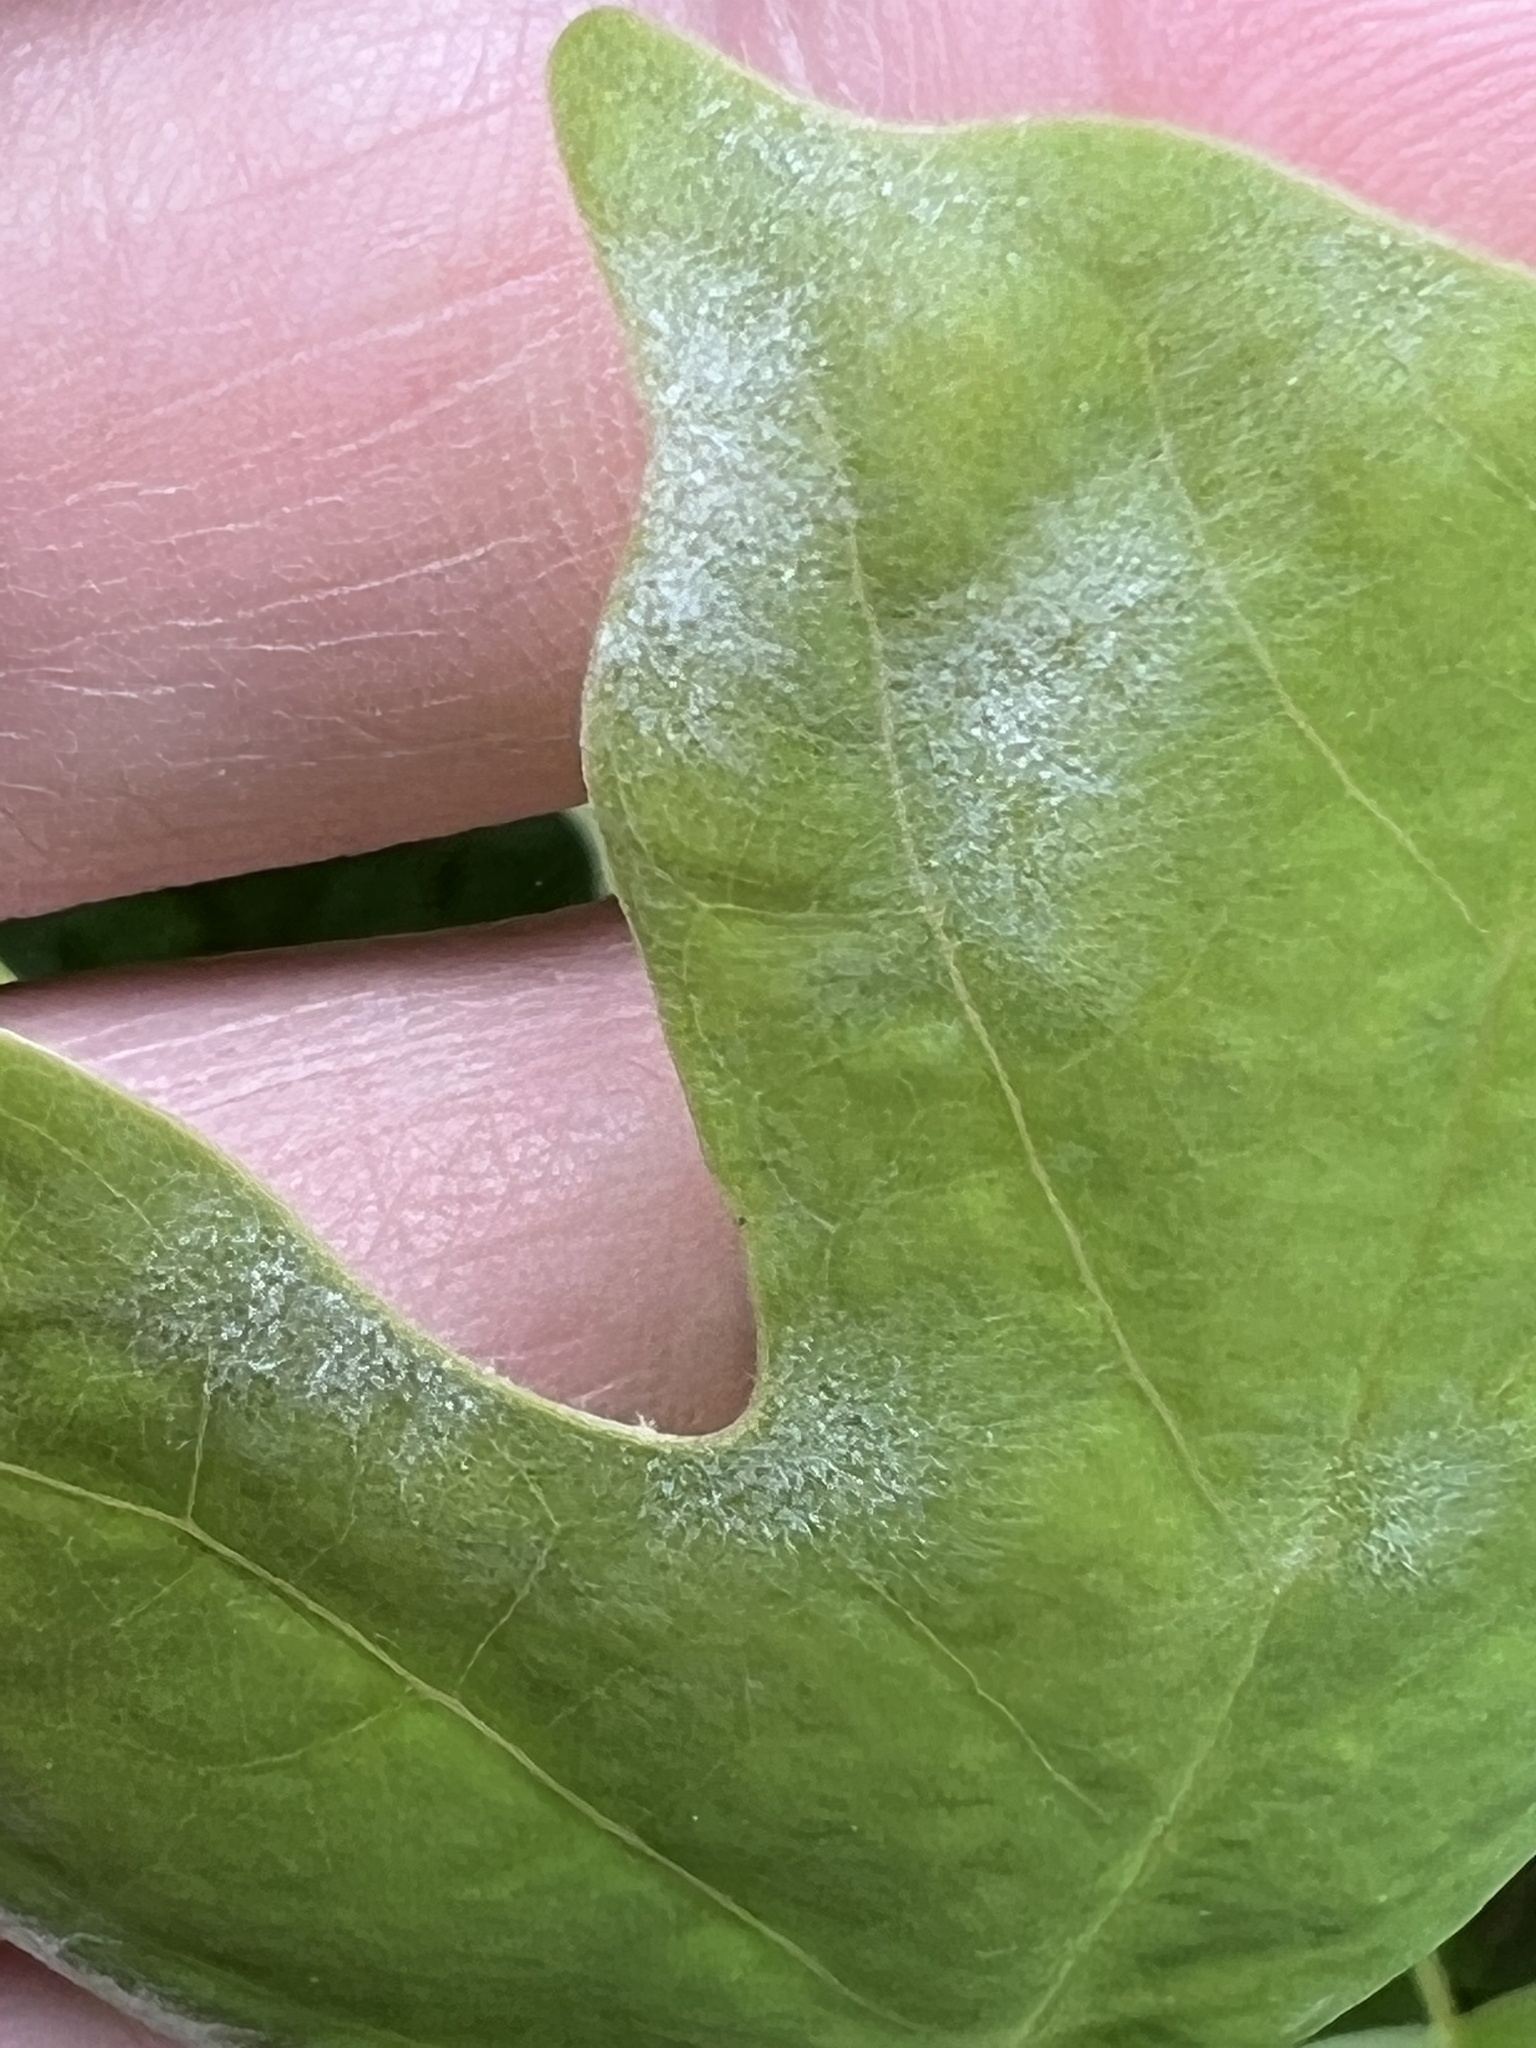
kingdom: Fungi
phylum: Ascomycota
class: Leotiomycetes
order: Helotiales
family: Erysiphaceae
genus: Erysiphe
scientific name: Erysiphe liriodendri
